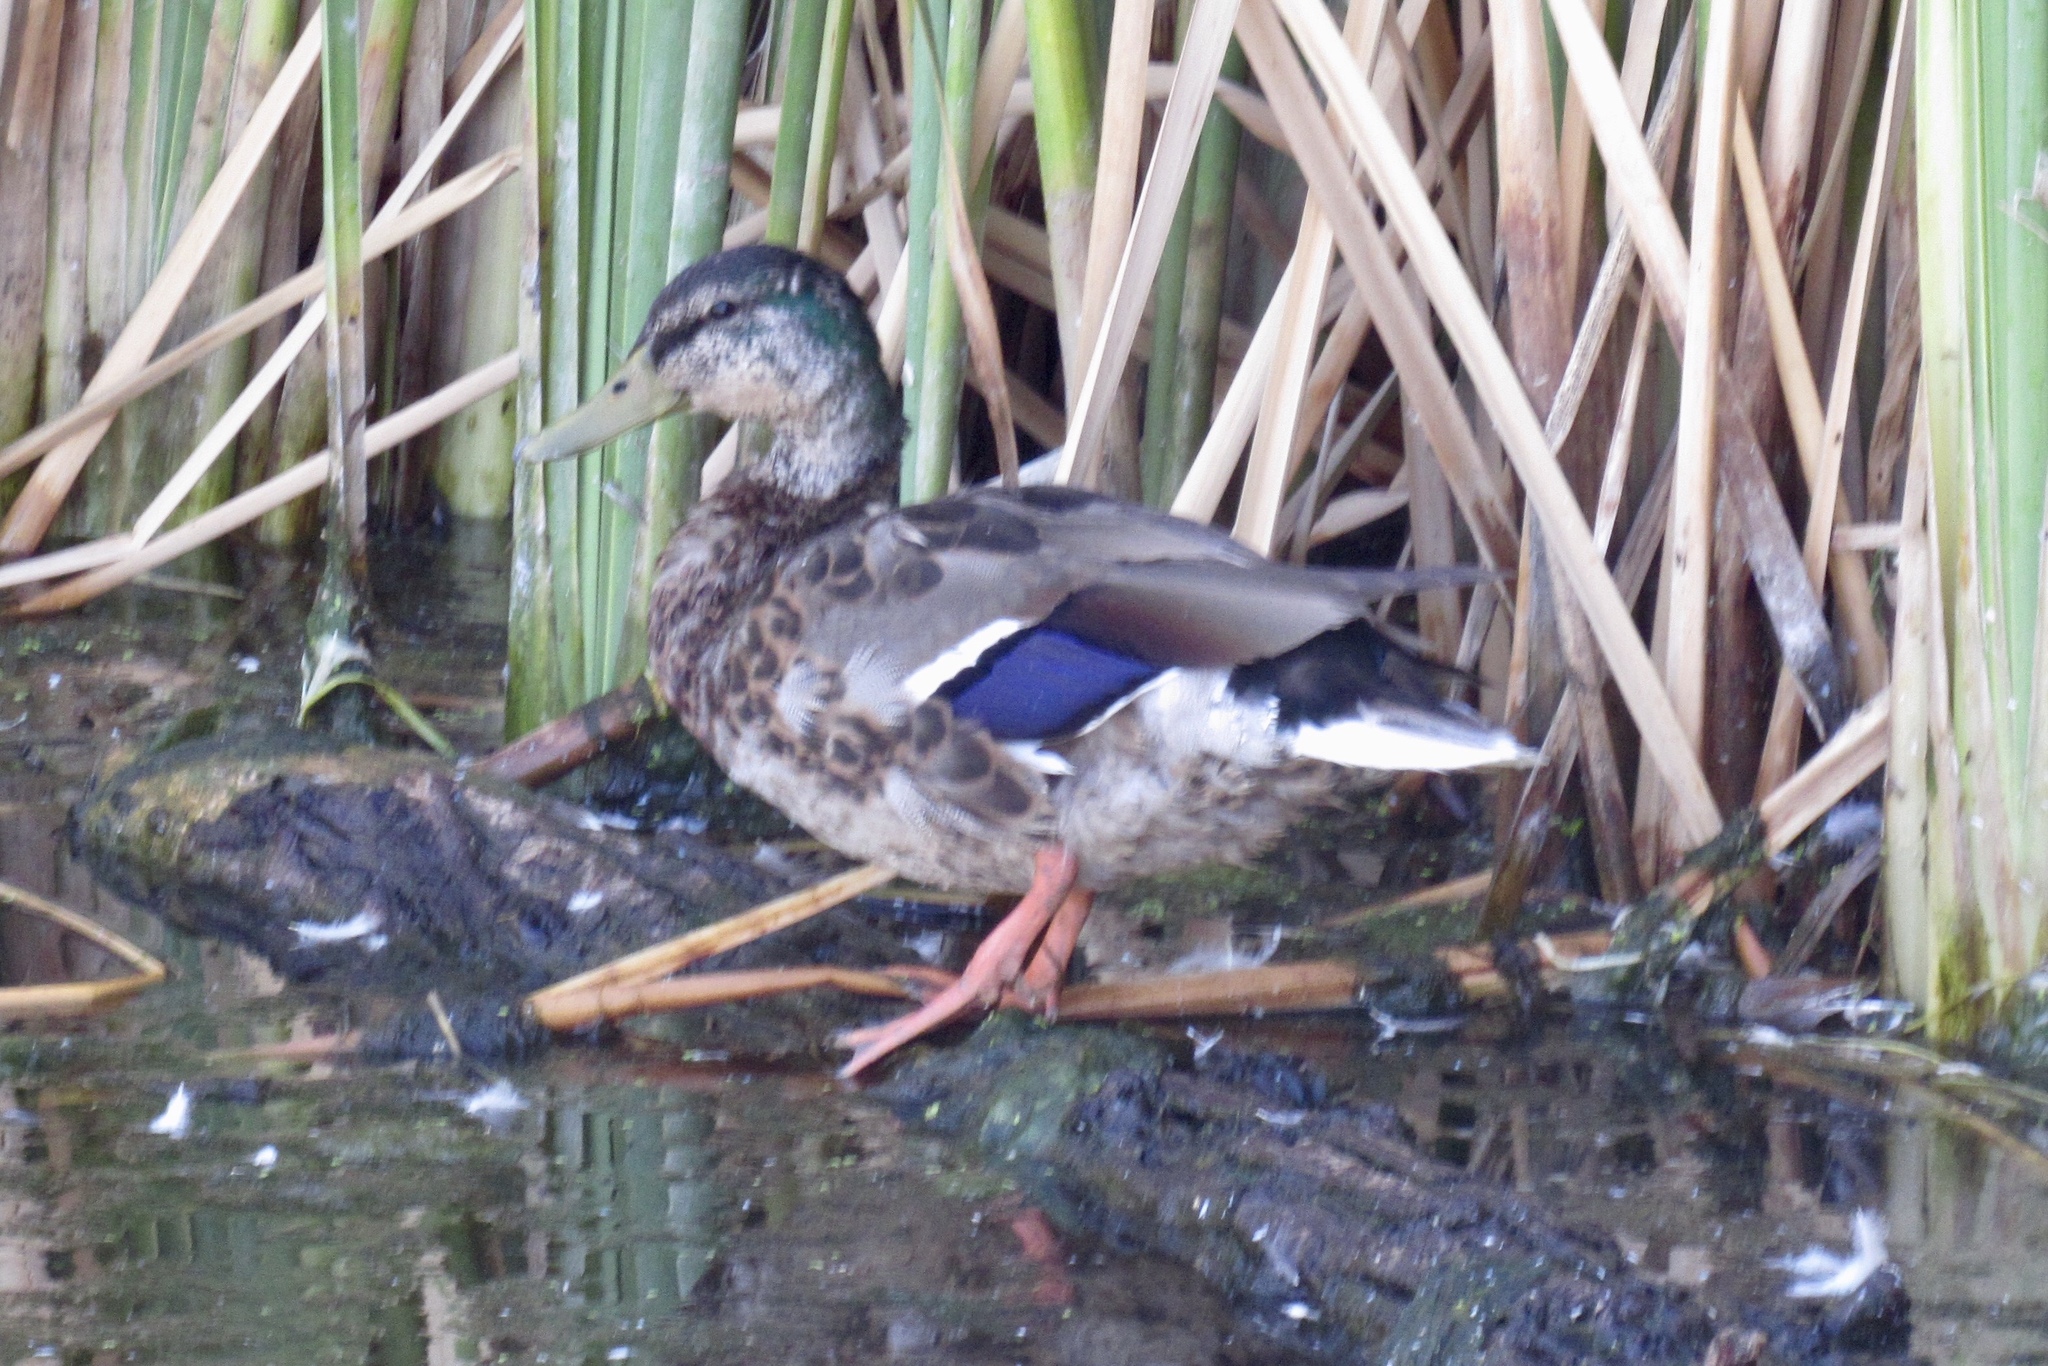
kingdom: Animalia
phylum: Chordata
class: Aves
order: Anseriformes
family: Anatidae
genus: Anas
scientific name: Anas platyrhynchos
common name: Mallard
